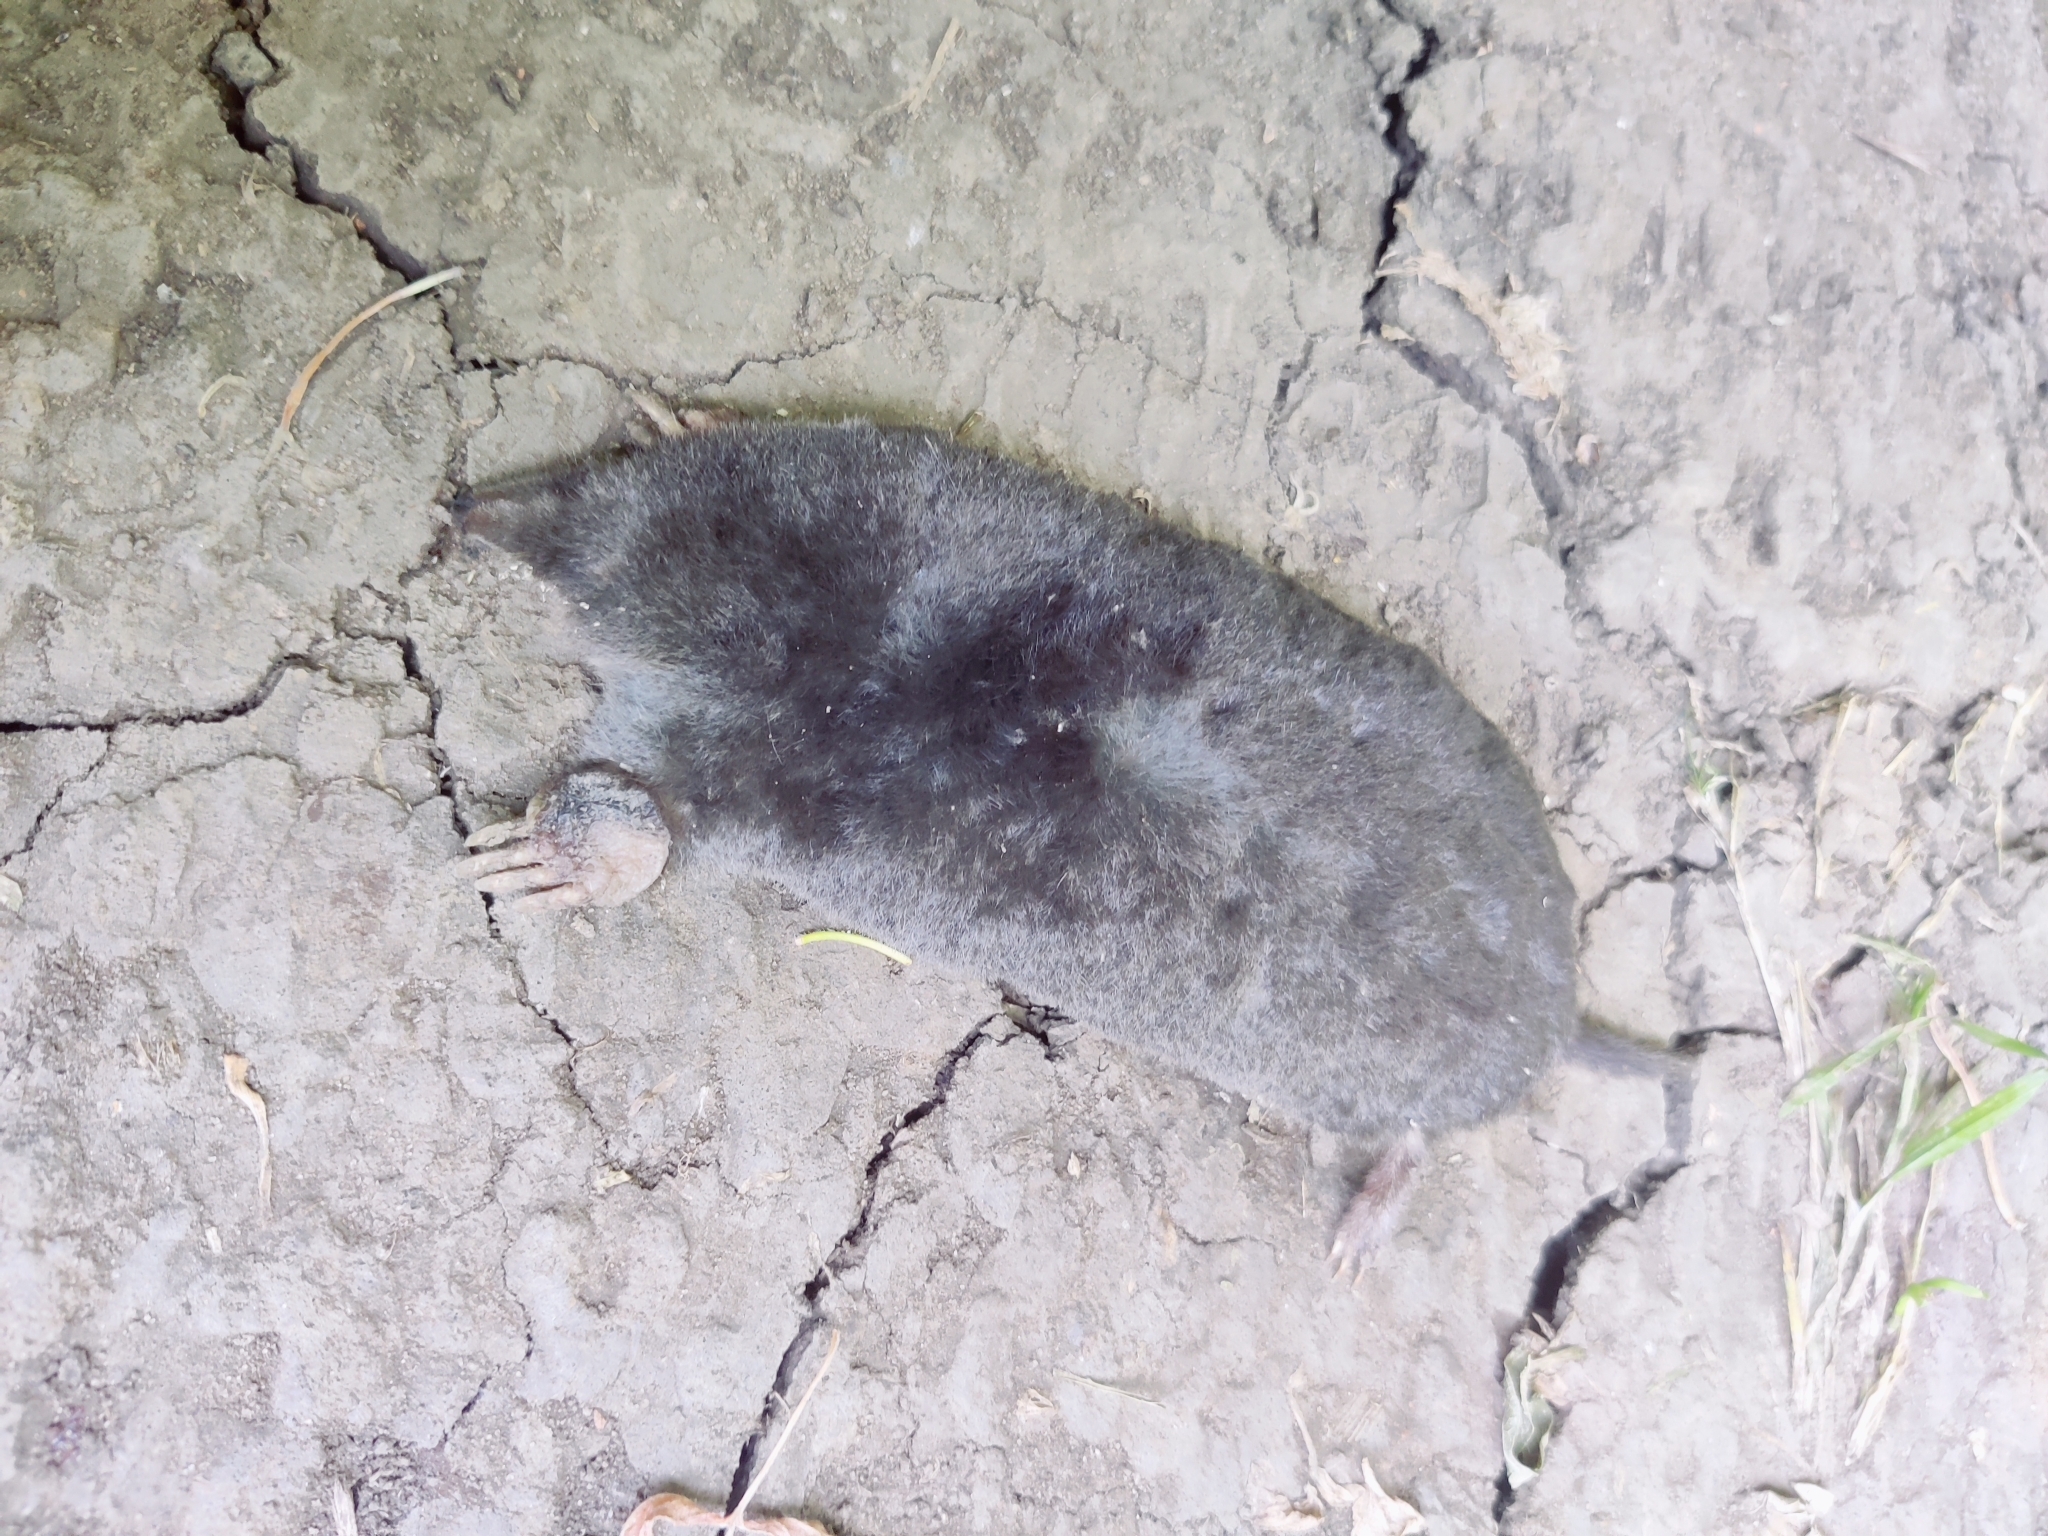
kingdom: Animalia
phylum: Chordata
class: Mammalia
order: Soricomorpha
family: Talpidae
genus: Talpa
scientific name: Talpa europaea
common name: European mole
